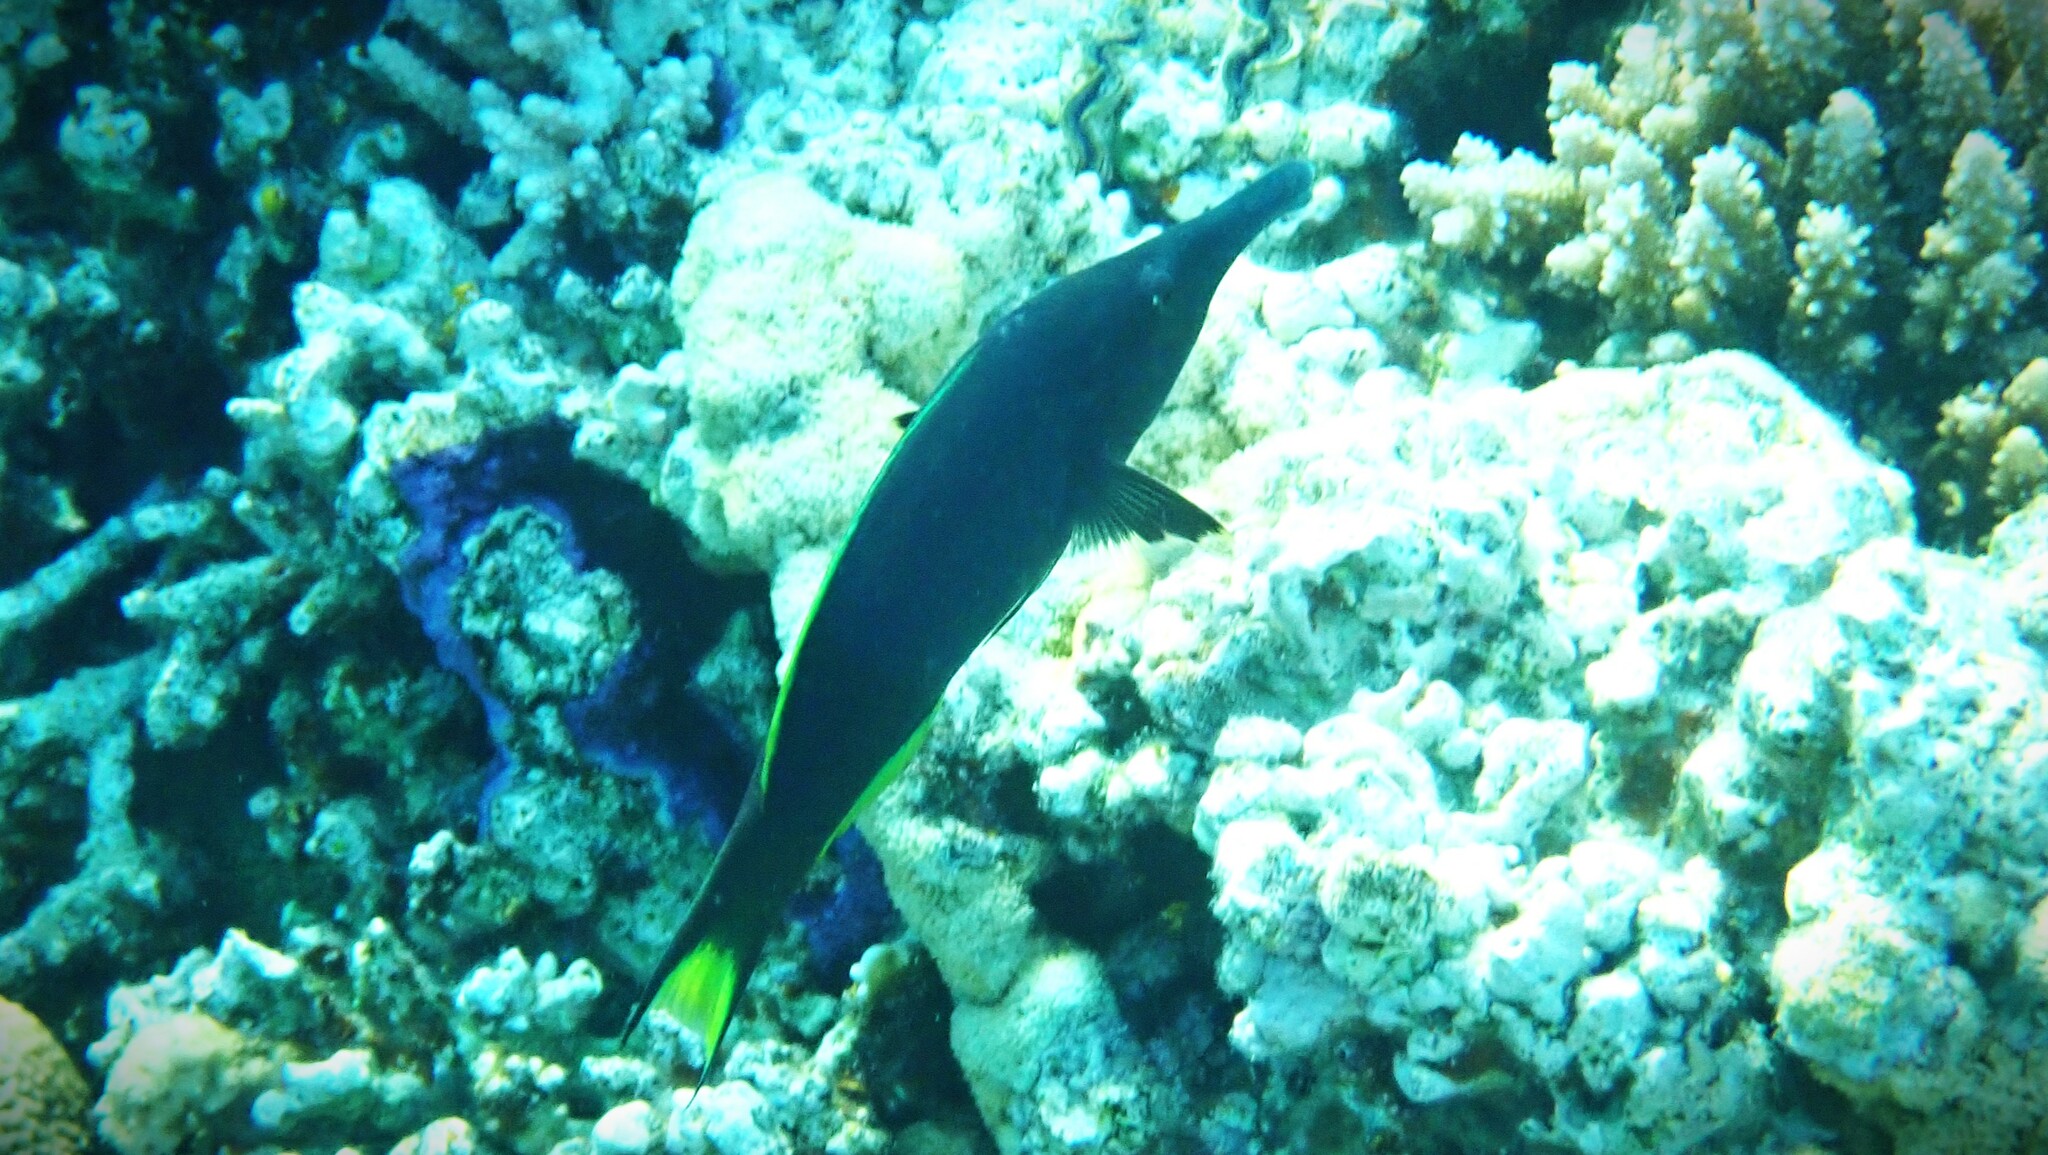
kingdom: Animalia
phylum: Chordata
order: Perciformes
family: Labridae
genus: Gomphosus
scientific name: Gomphosus klunzingeri
